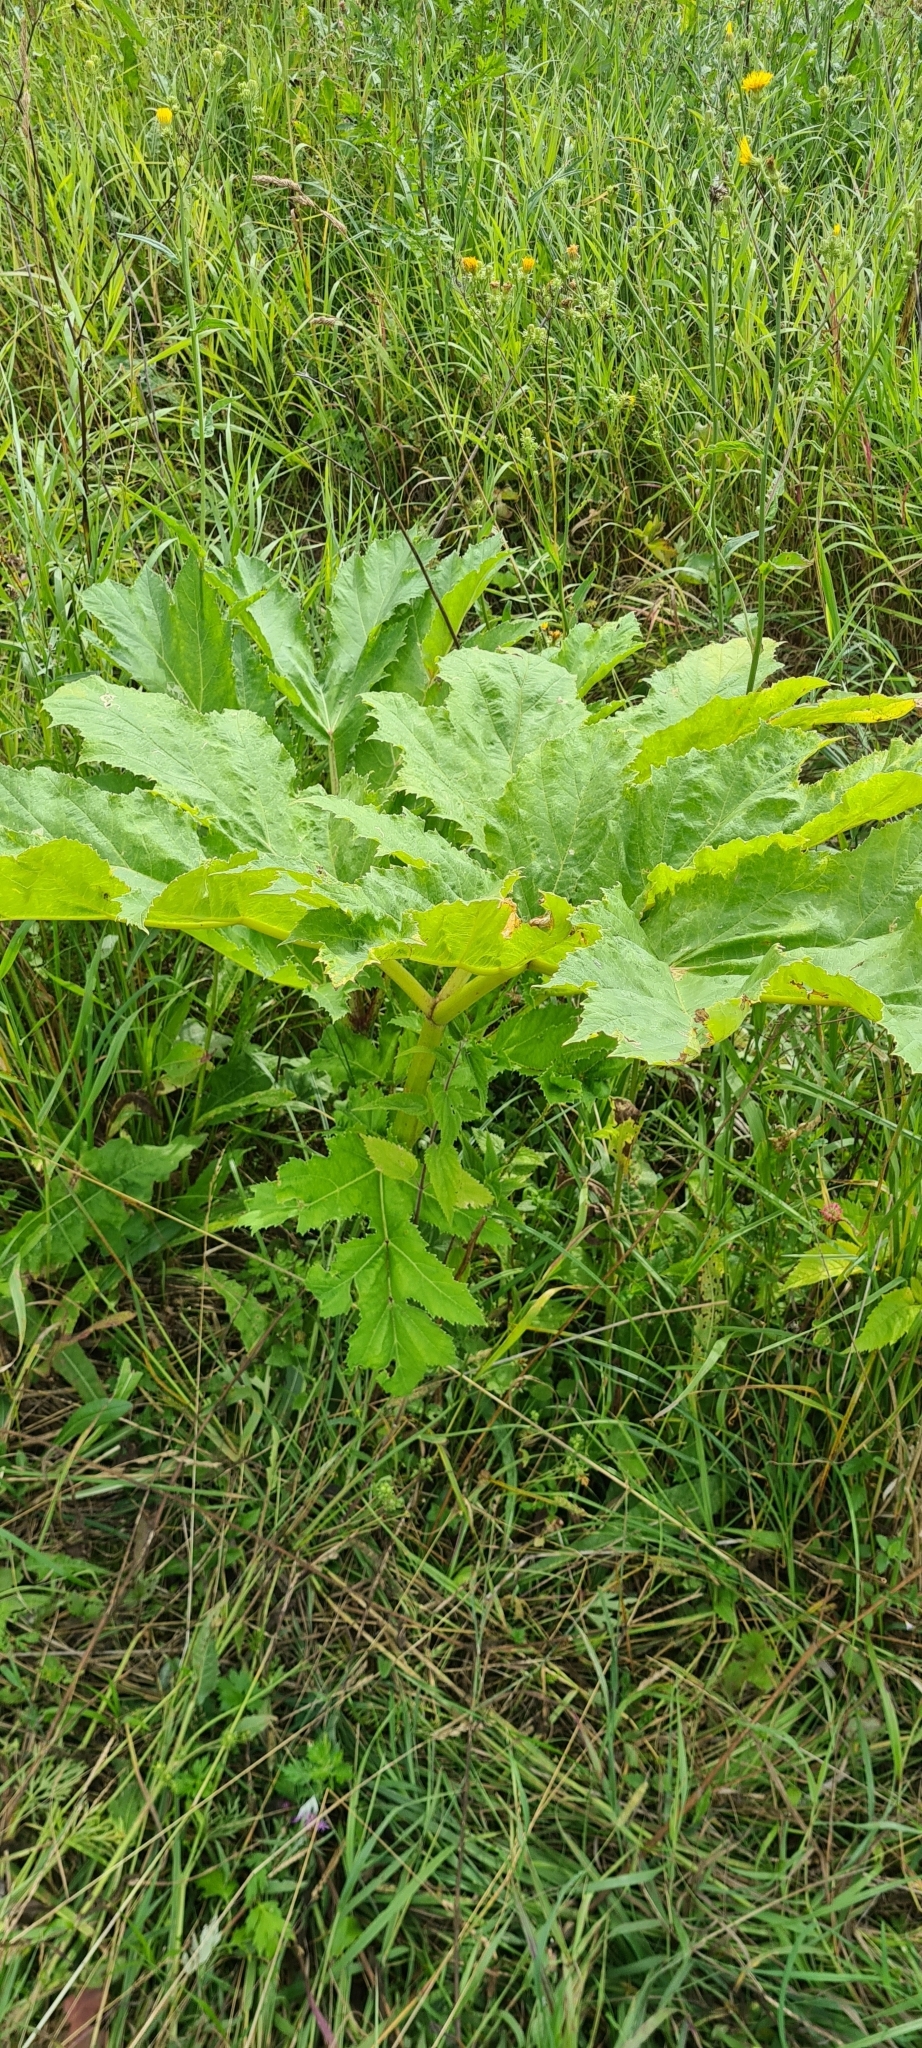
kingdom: Plantae
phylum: Tracheophyta
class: Magnoliopsida
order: Apiales
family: Apiaceae
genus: Heracleum
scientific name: Heracleum sosnowskyi
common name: Sosnowsky's hogweed
